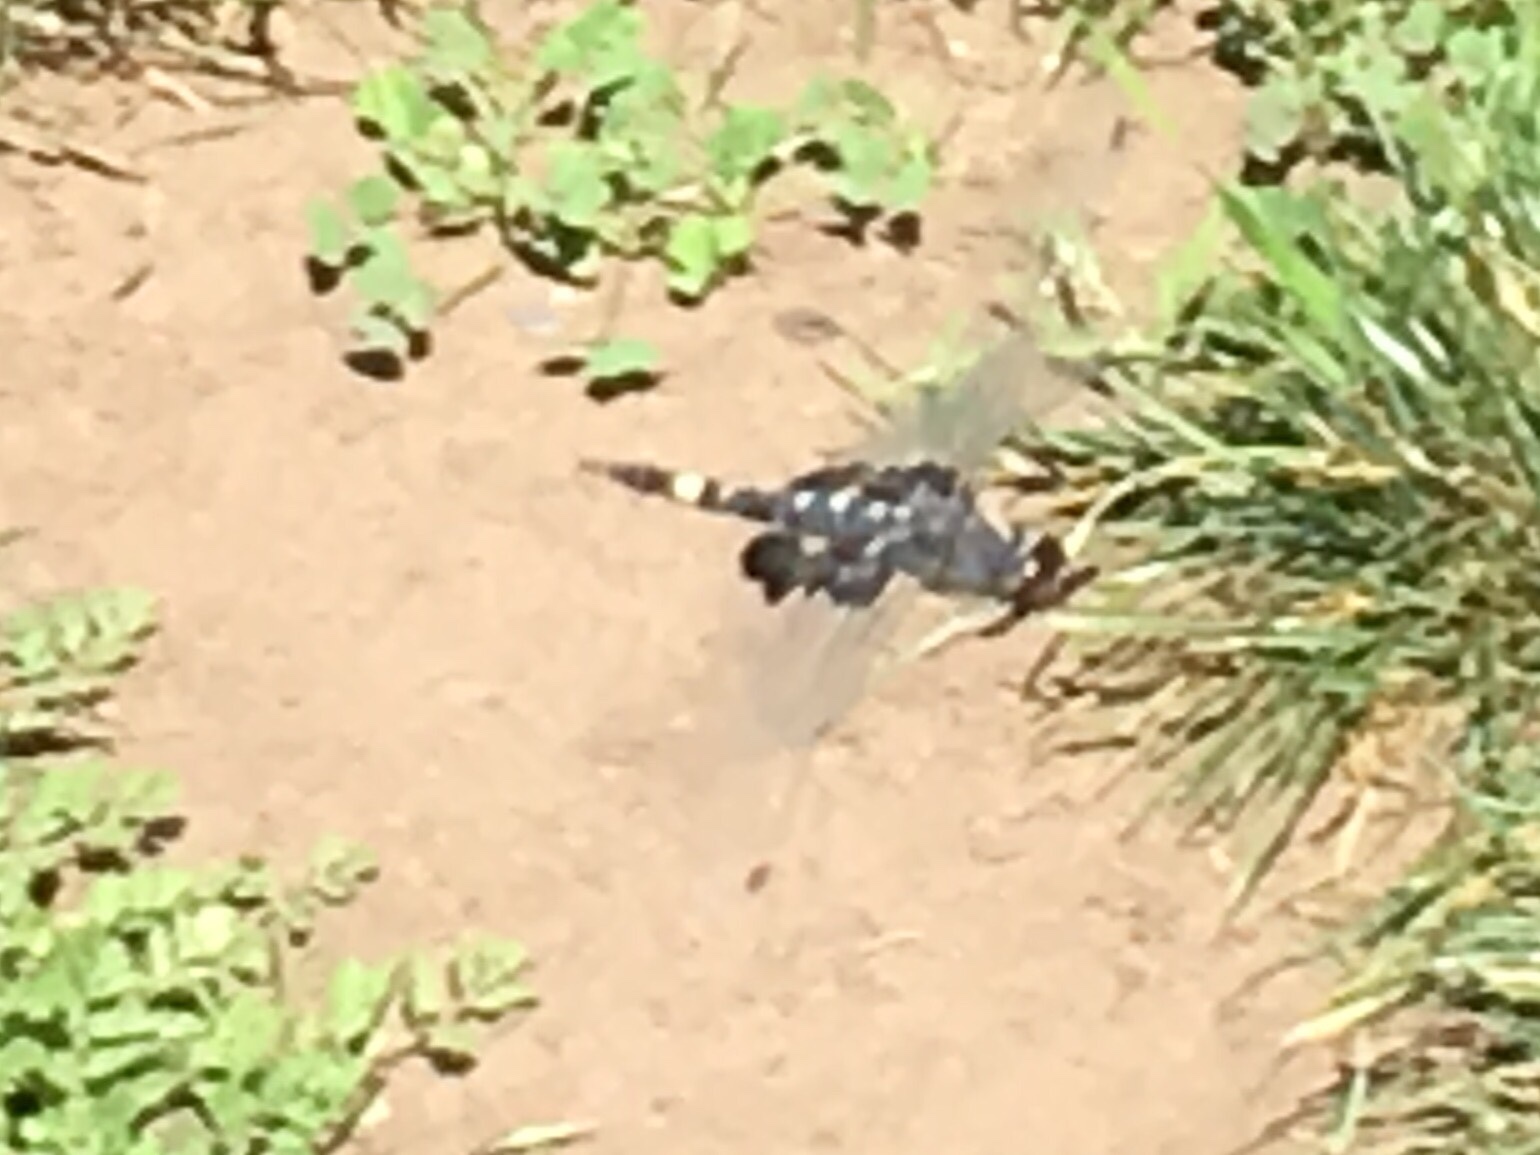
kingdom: Animalia
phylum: Arthropoda
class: Insecta
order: Odonata
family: Libellulidae
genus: Tramea
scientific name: Tramea lacerata
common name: Black saddlebags
